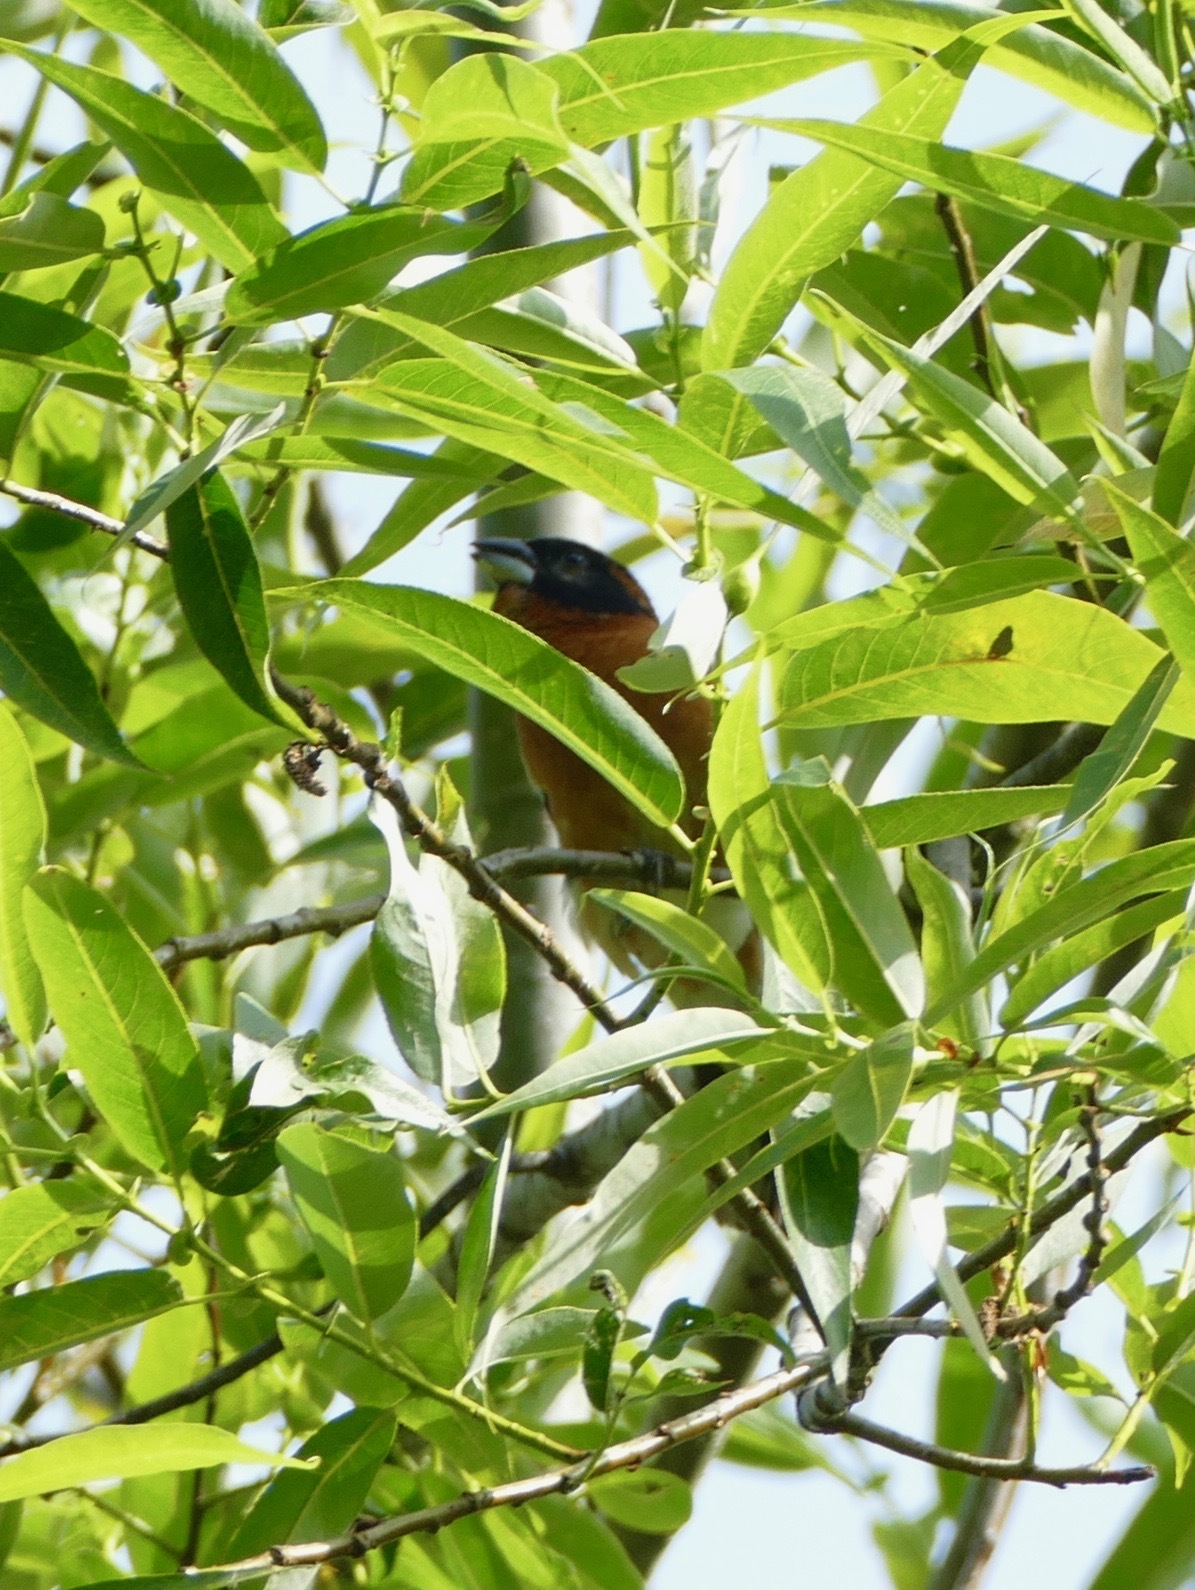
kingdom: Animalia
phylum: Chordata
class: Aves
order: Passeriformes
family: Cardinalidae
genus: Pheucticus
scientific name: Pheucticus melanocephalus
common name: Black-headed grosbeak
